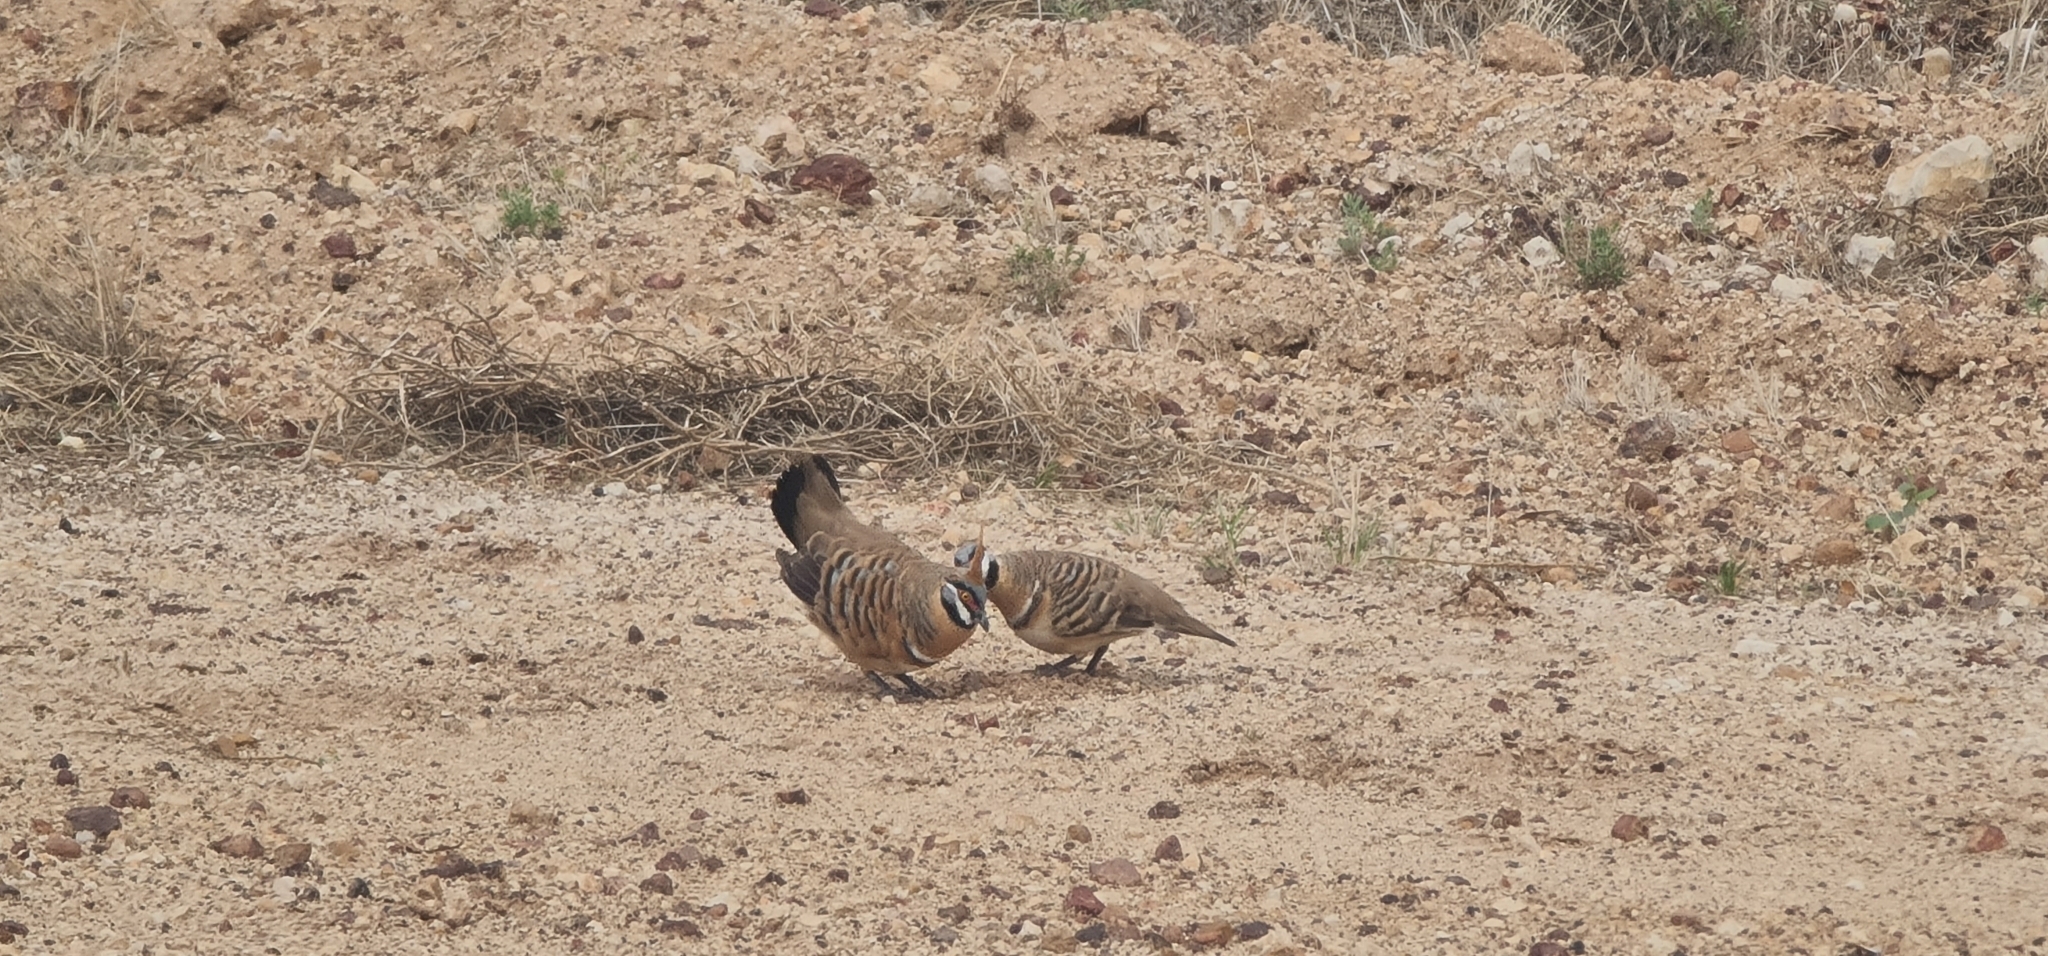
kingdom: Animalia
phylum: Chordata
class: Aves
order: Columbiformes
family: Columbidae
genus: Geophaps
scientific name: Geophaps plumifera
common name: Spinifex pigeon
